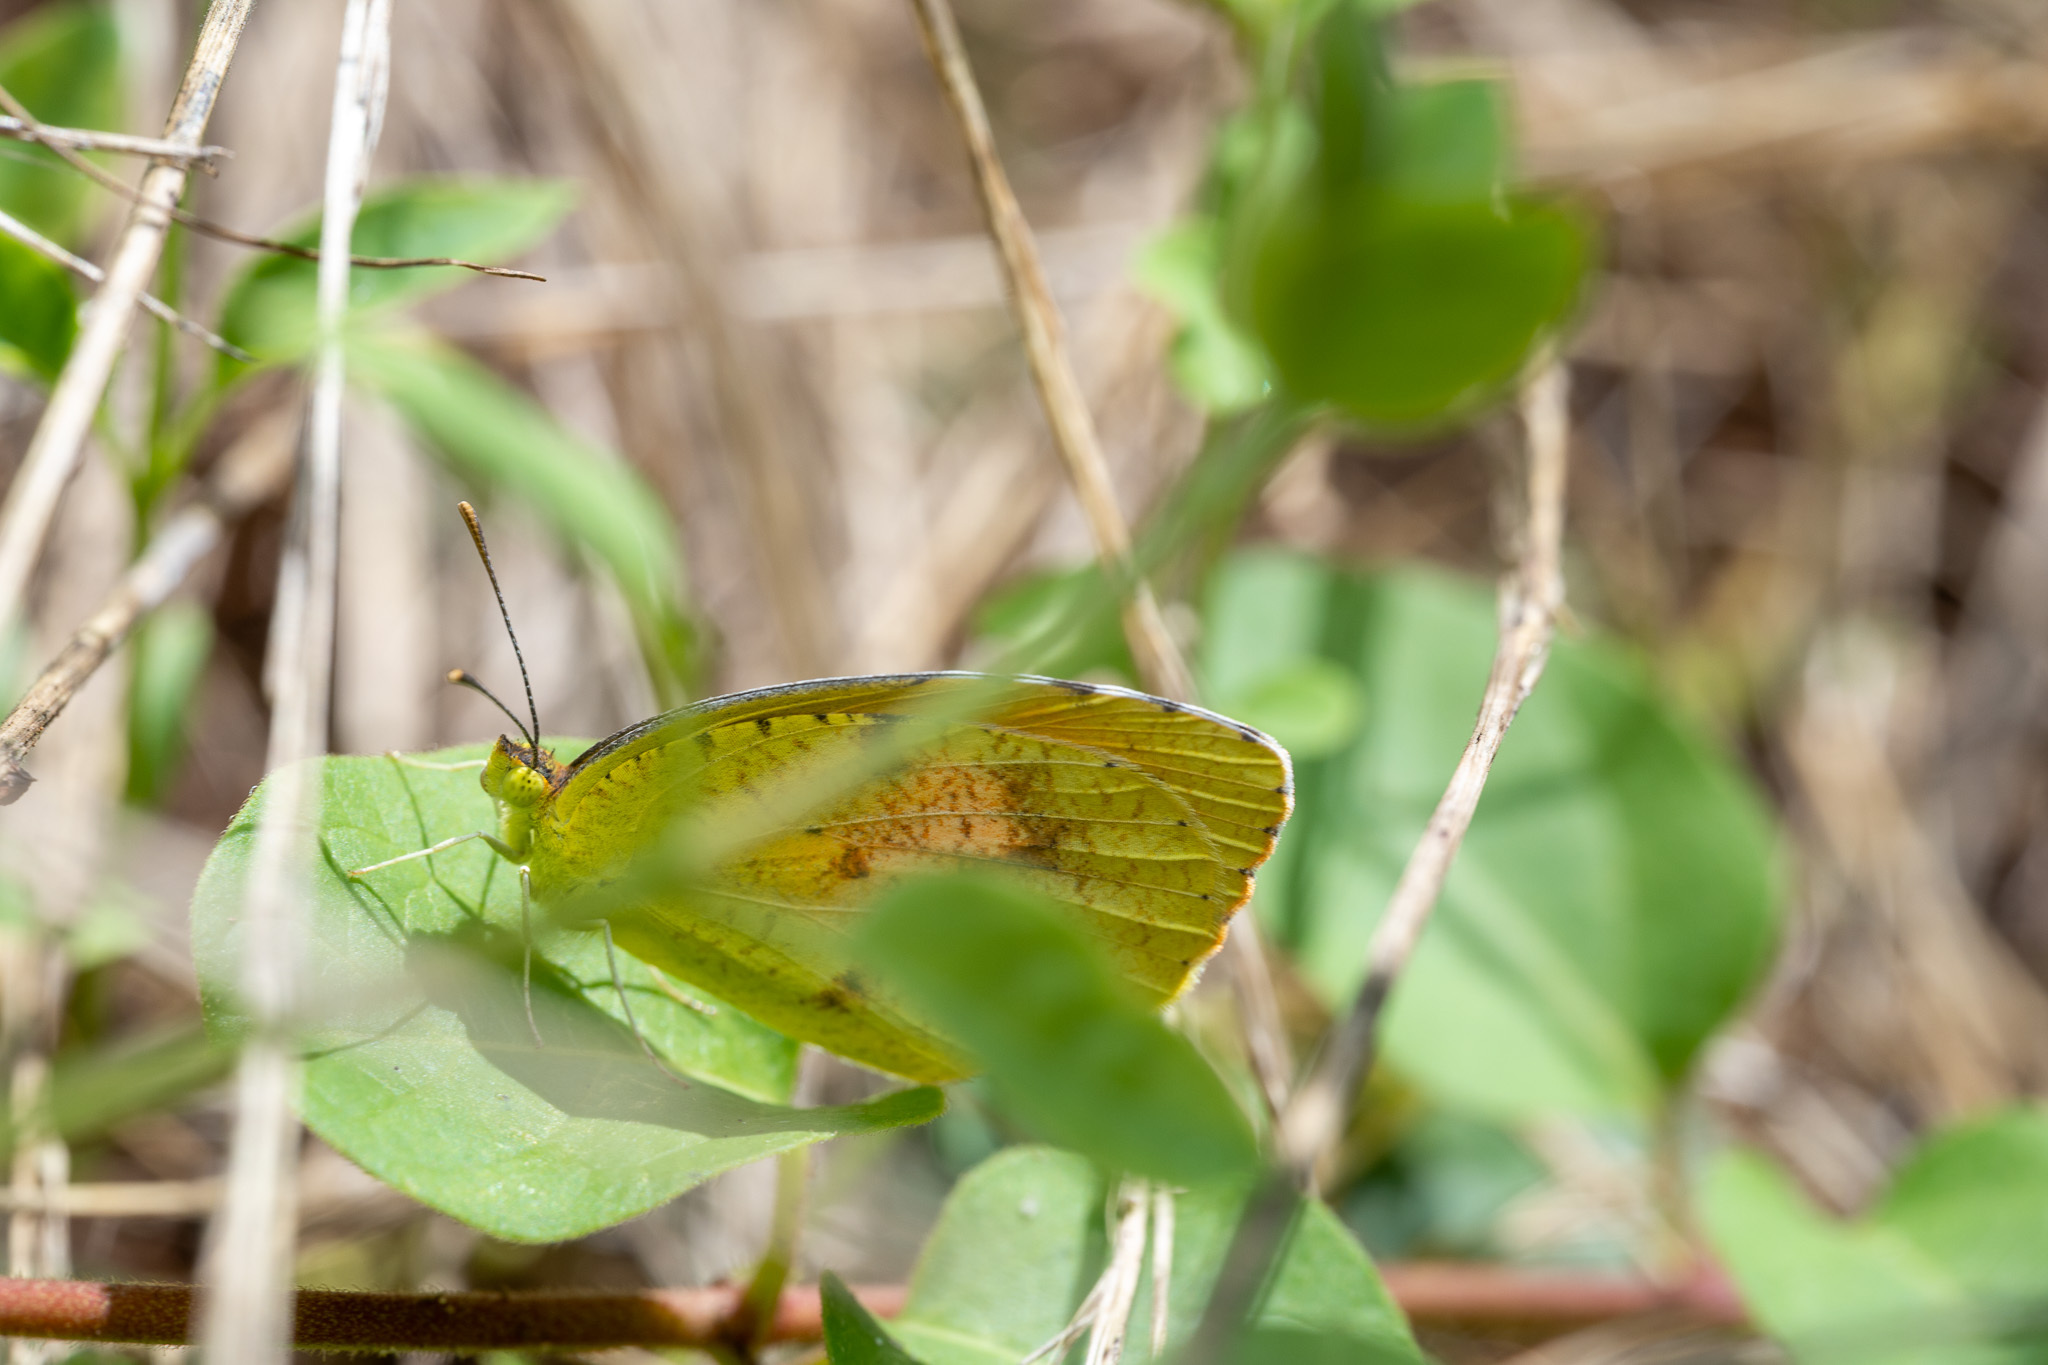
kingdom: Animalia
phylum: Arthropoda
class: Insecta
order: Lepidoptera
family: Pieridae
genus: Abaeis
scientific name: Abaeis nicippe
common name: Sleepy orange
